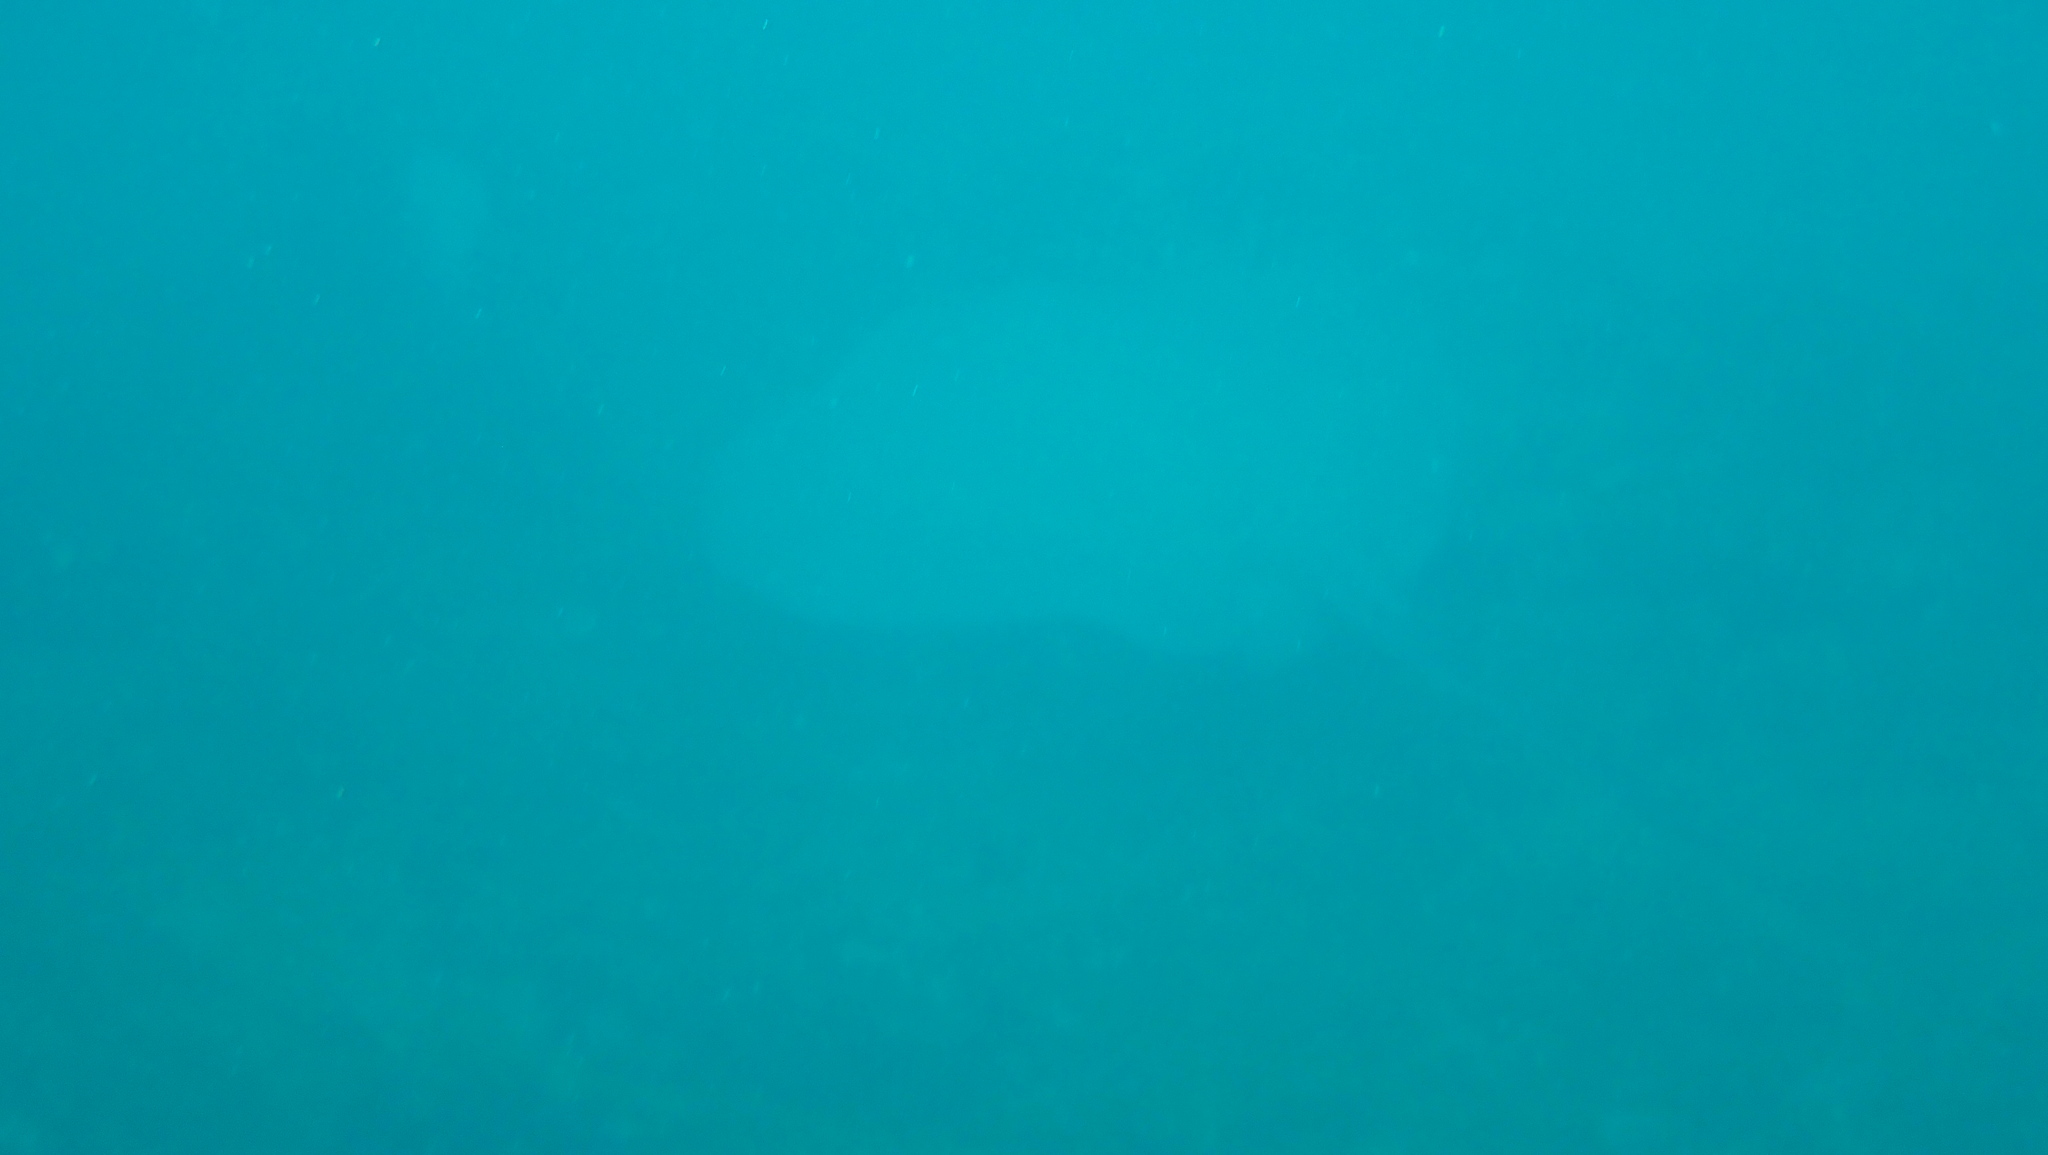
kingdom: Animalia
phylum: Chordata
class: Elasmobranchii
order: Myliobatiformes
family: Dasyatidae
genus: Hypanus
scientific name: Hypanus longus
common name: Longtail stingray
